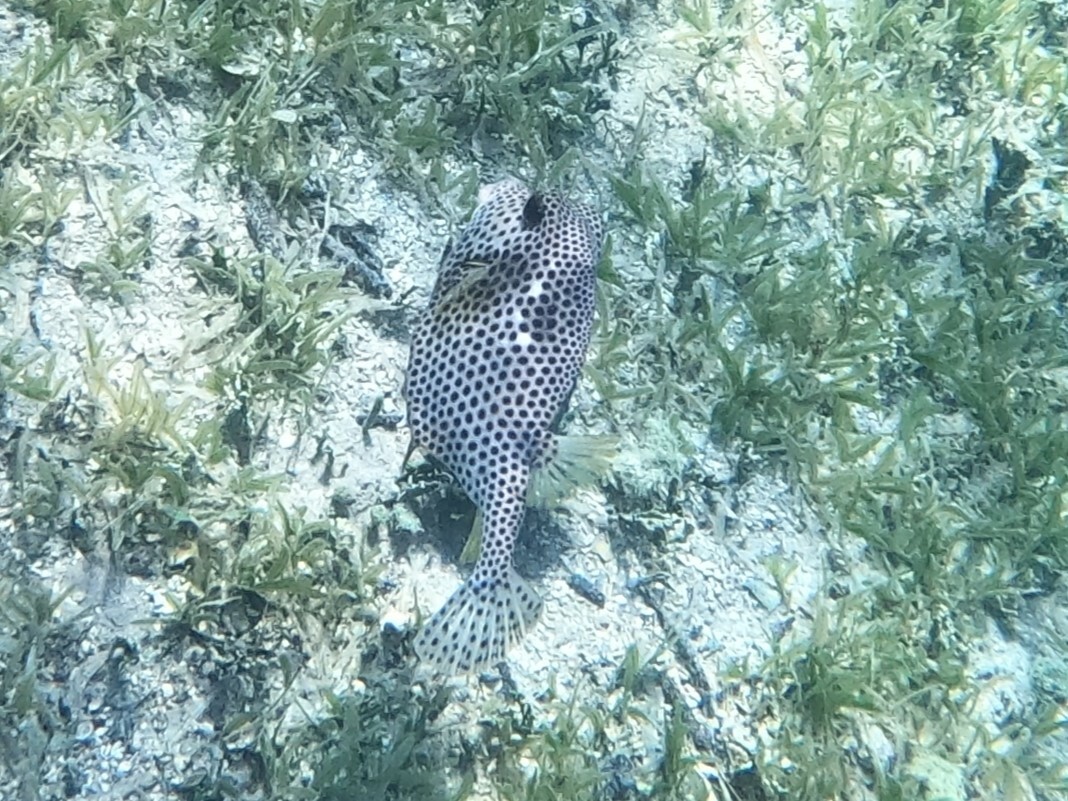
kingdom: Animalia
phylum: Chordata
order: Tetraodontiformes
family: Ostraciidae
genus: Lactophrys
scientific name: Lactophrys bicaudalis
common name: Spotted trunkfish
